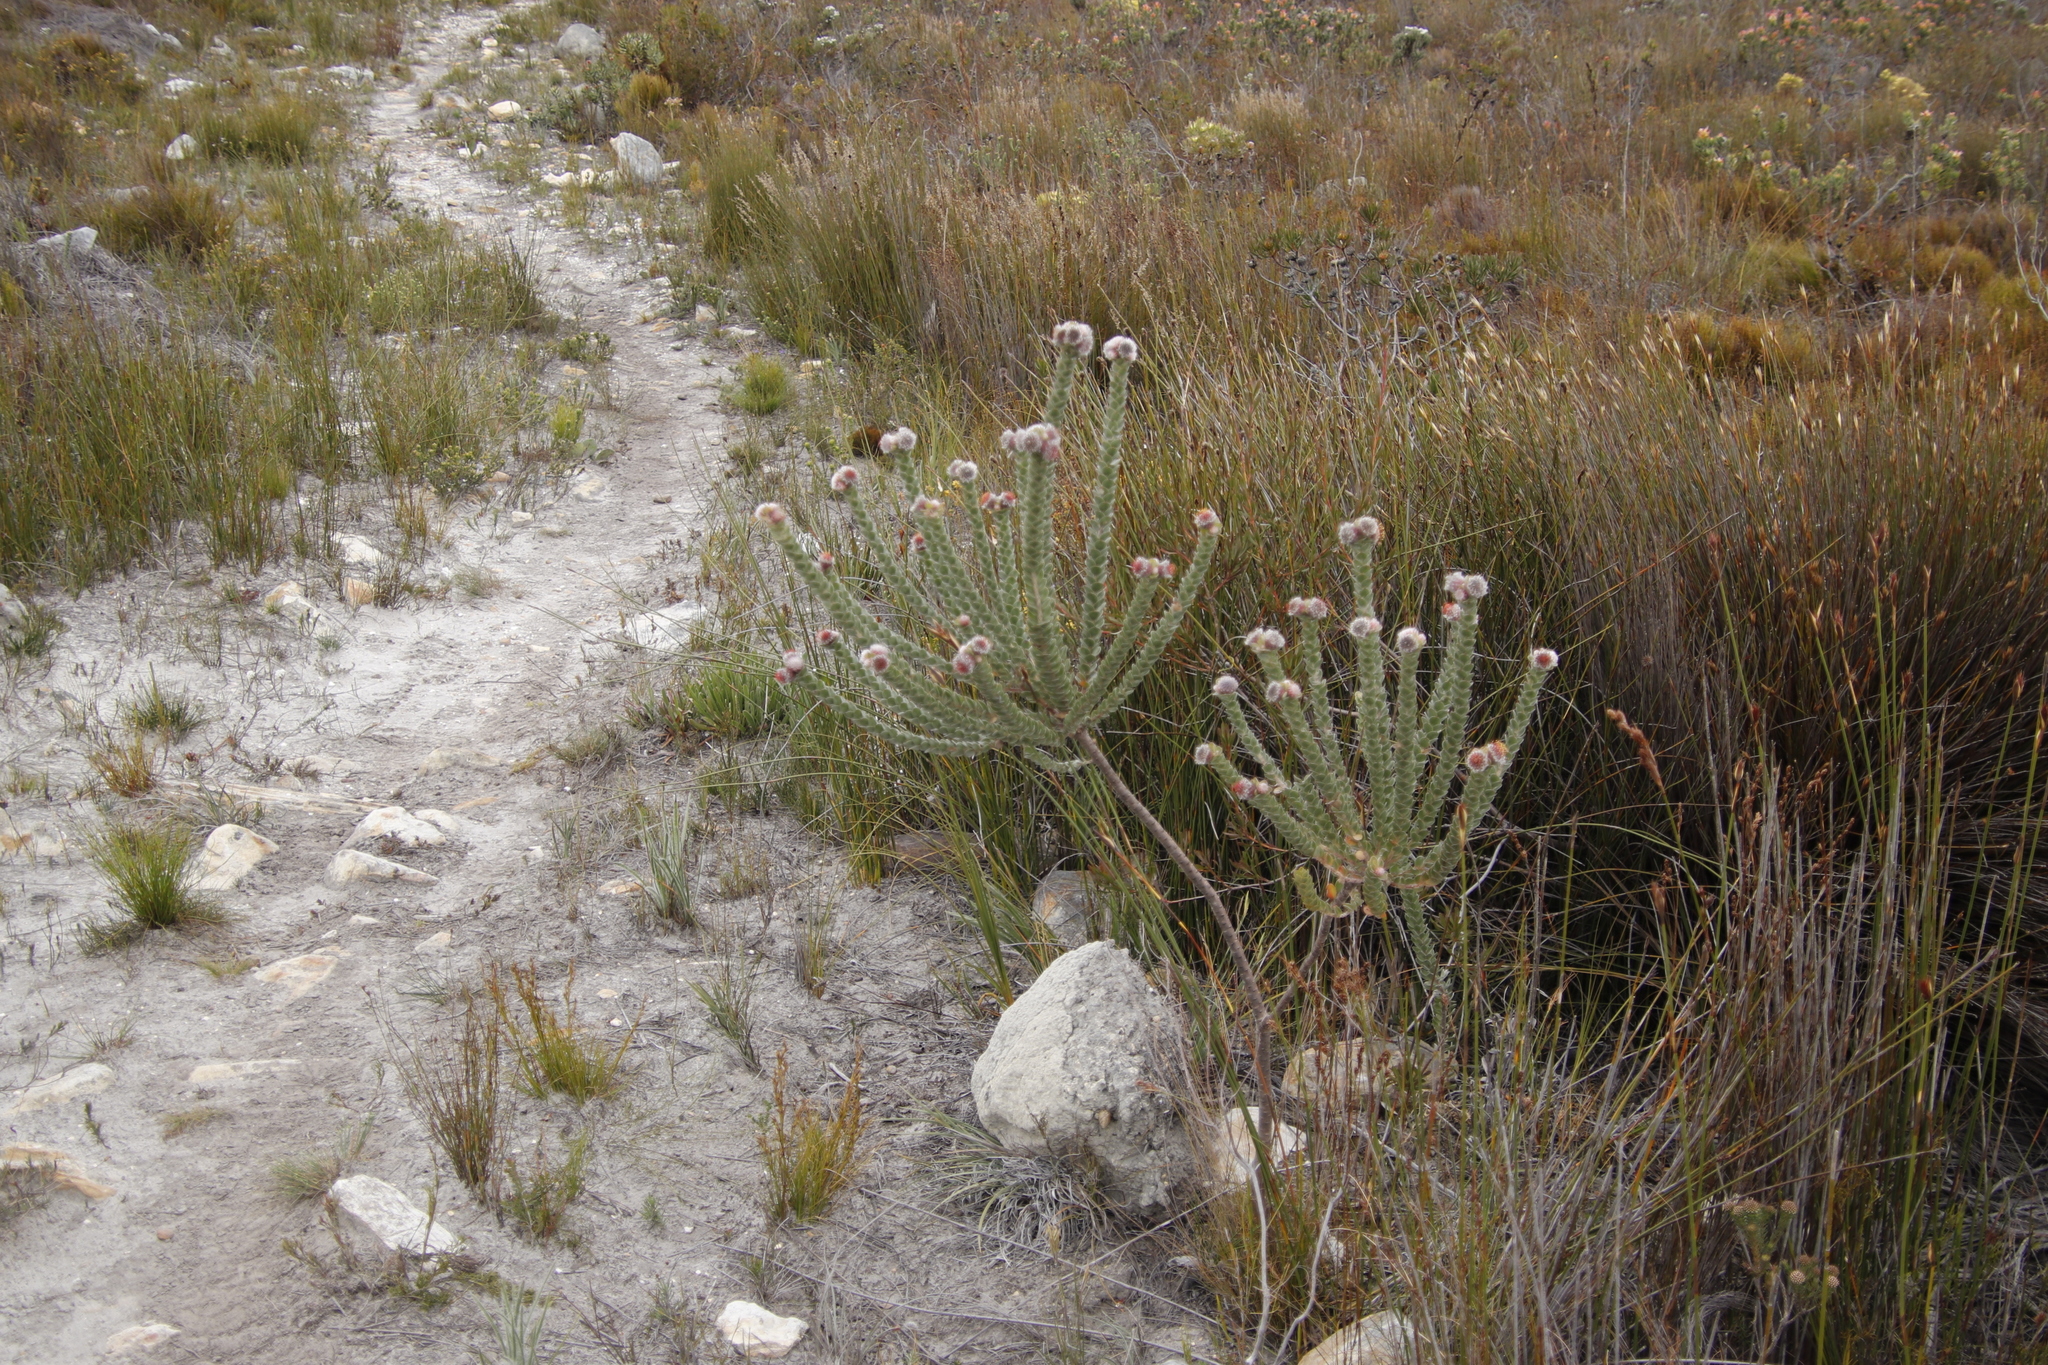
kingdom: Plantae
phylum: Tracheophyta
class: Magnoliopsida
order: Proteales
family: Proteaceae
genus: Leucospermum
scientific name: Leucospermum truncatulum
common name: Oval-leaf pincushion
